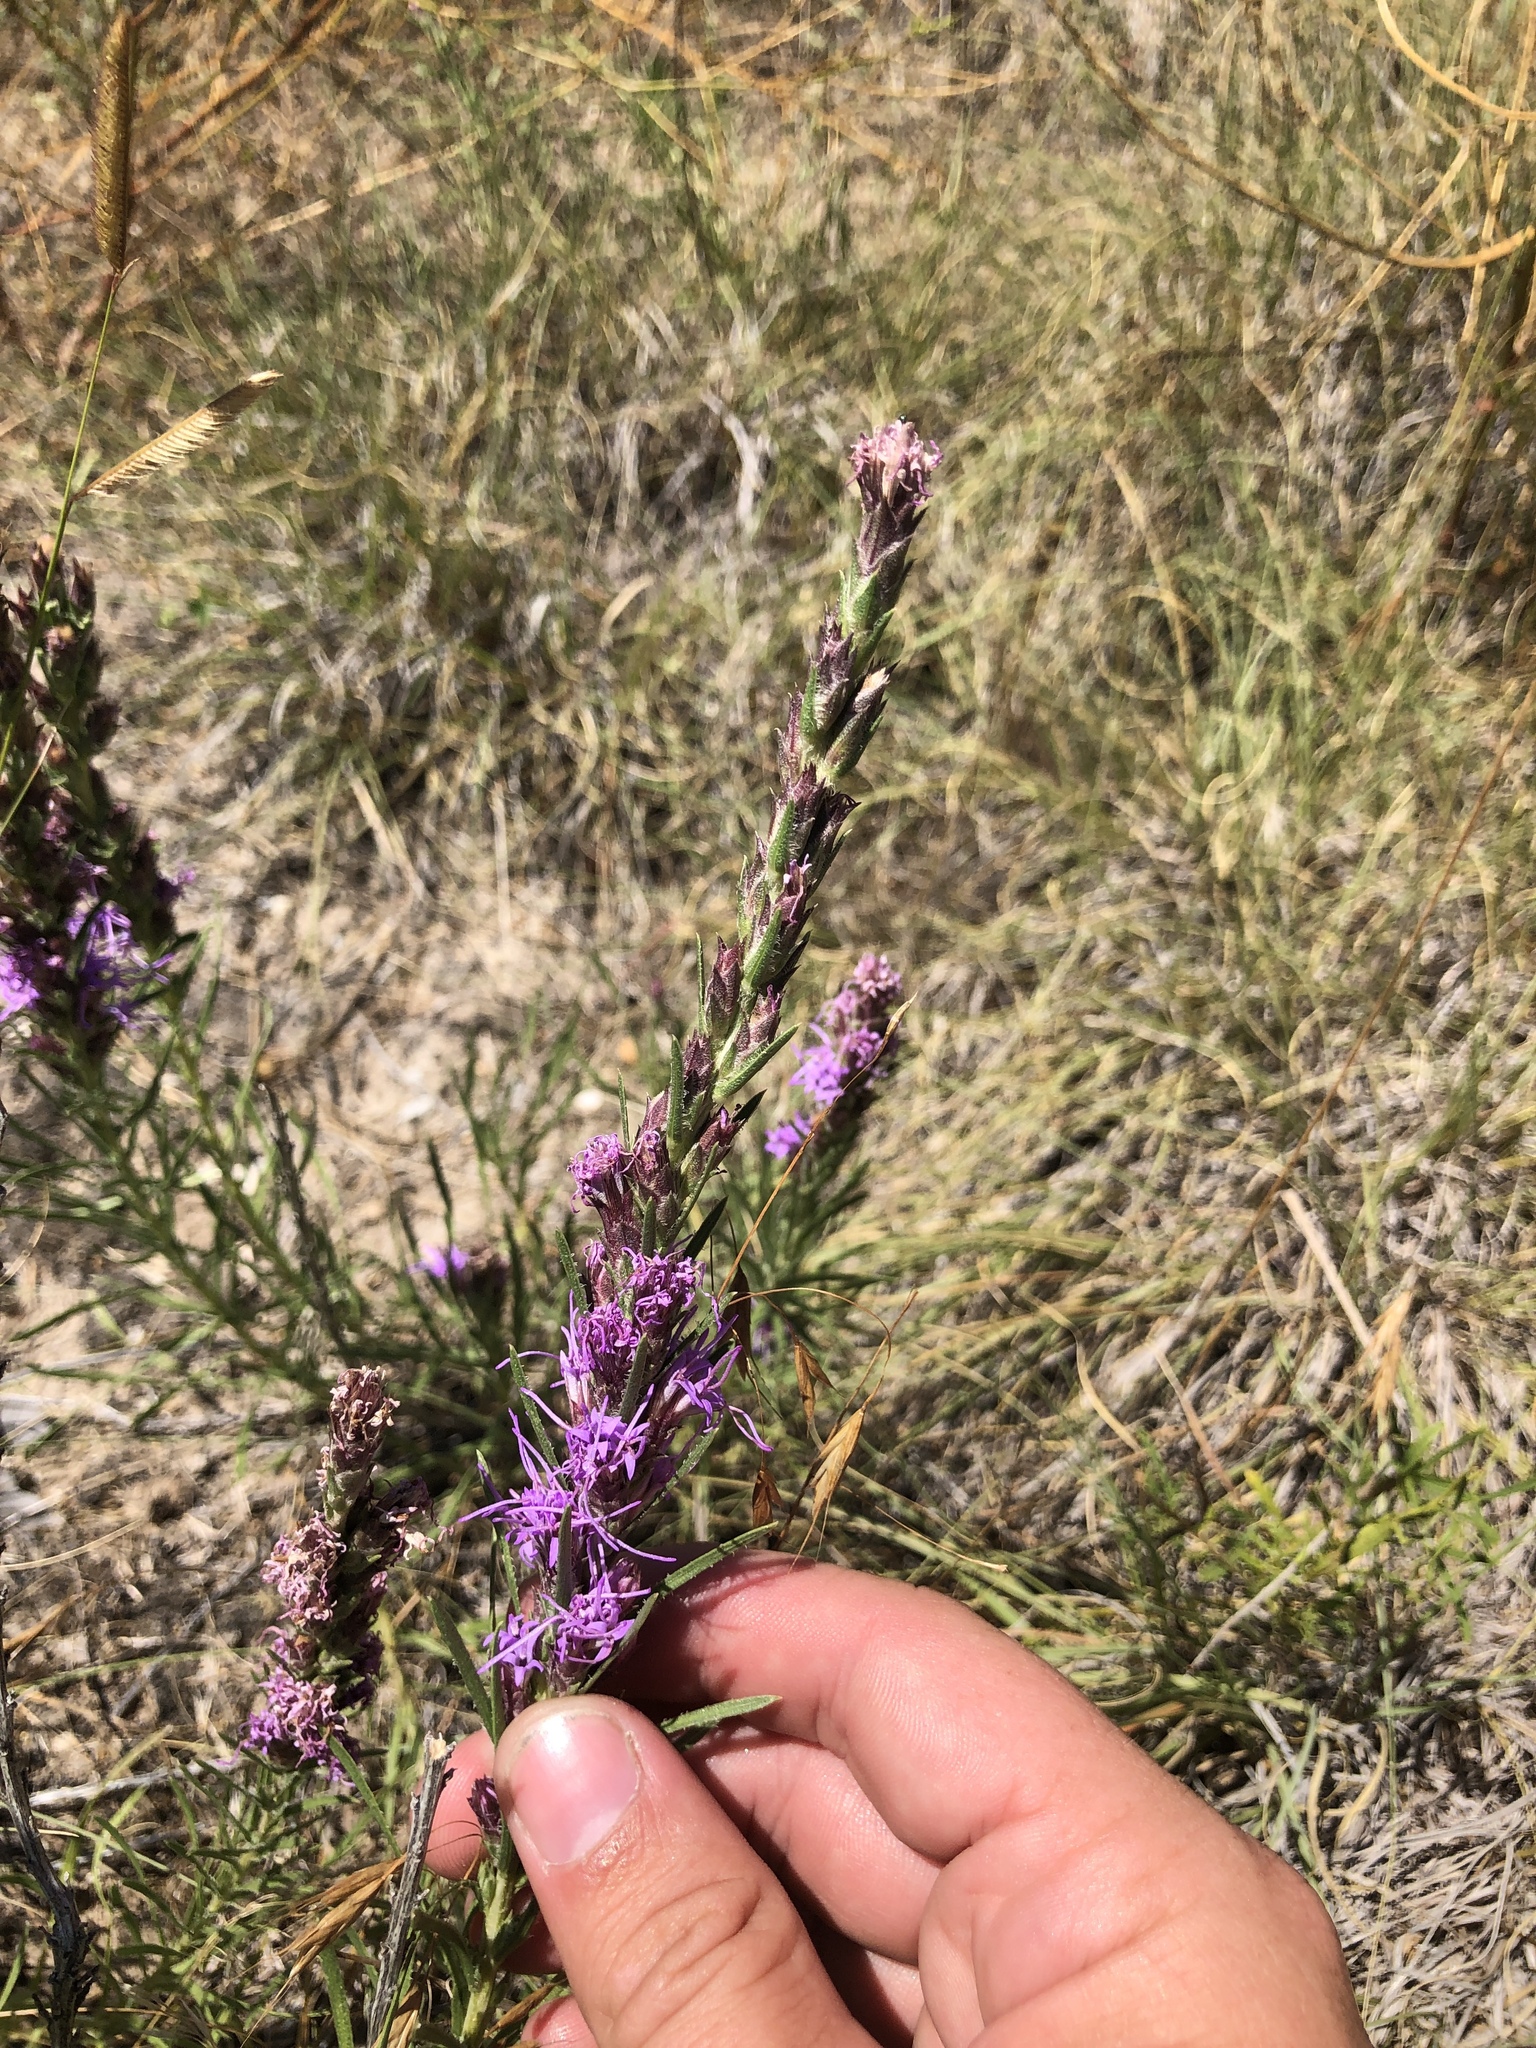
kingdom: Plantae
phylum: Tracheophyta
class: Magnoliopsida
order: Asterales
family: Asteraceae
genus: Liatris
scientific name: Liatris punctata
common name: Dotted gayfeather
